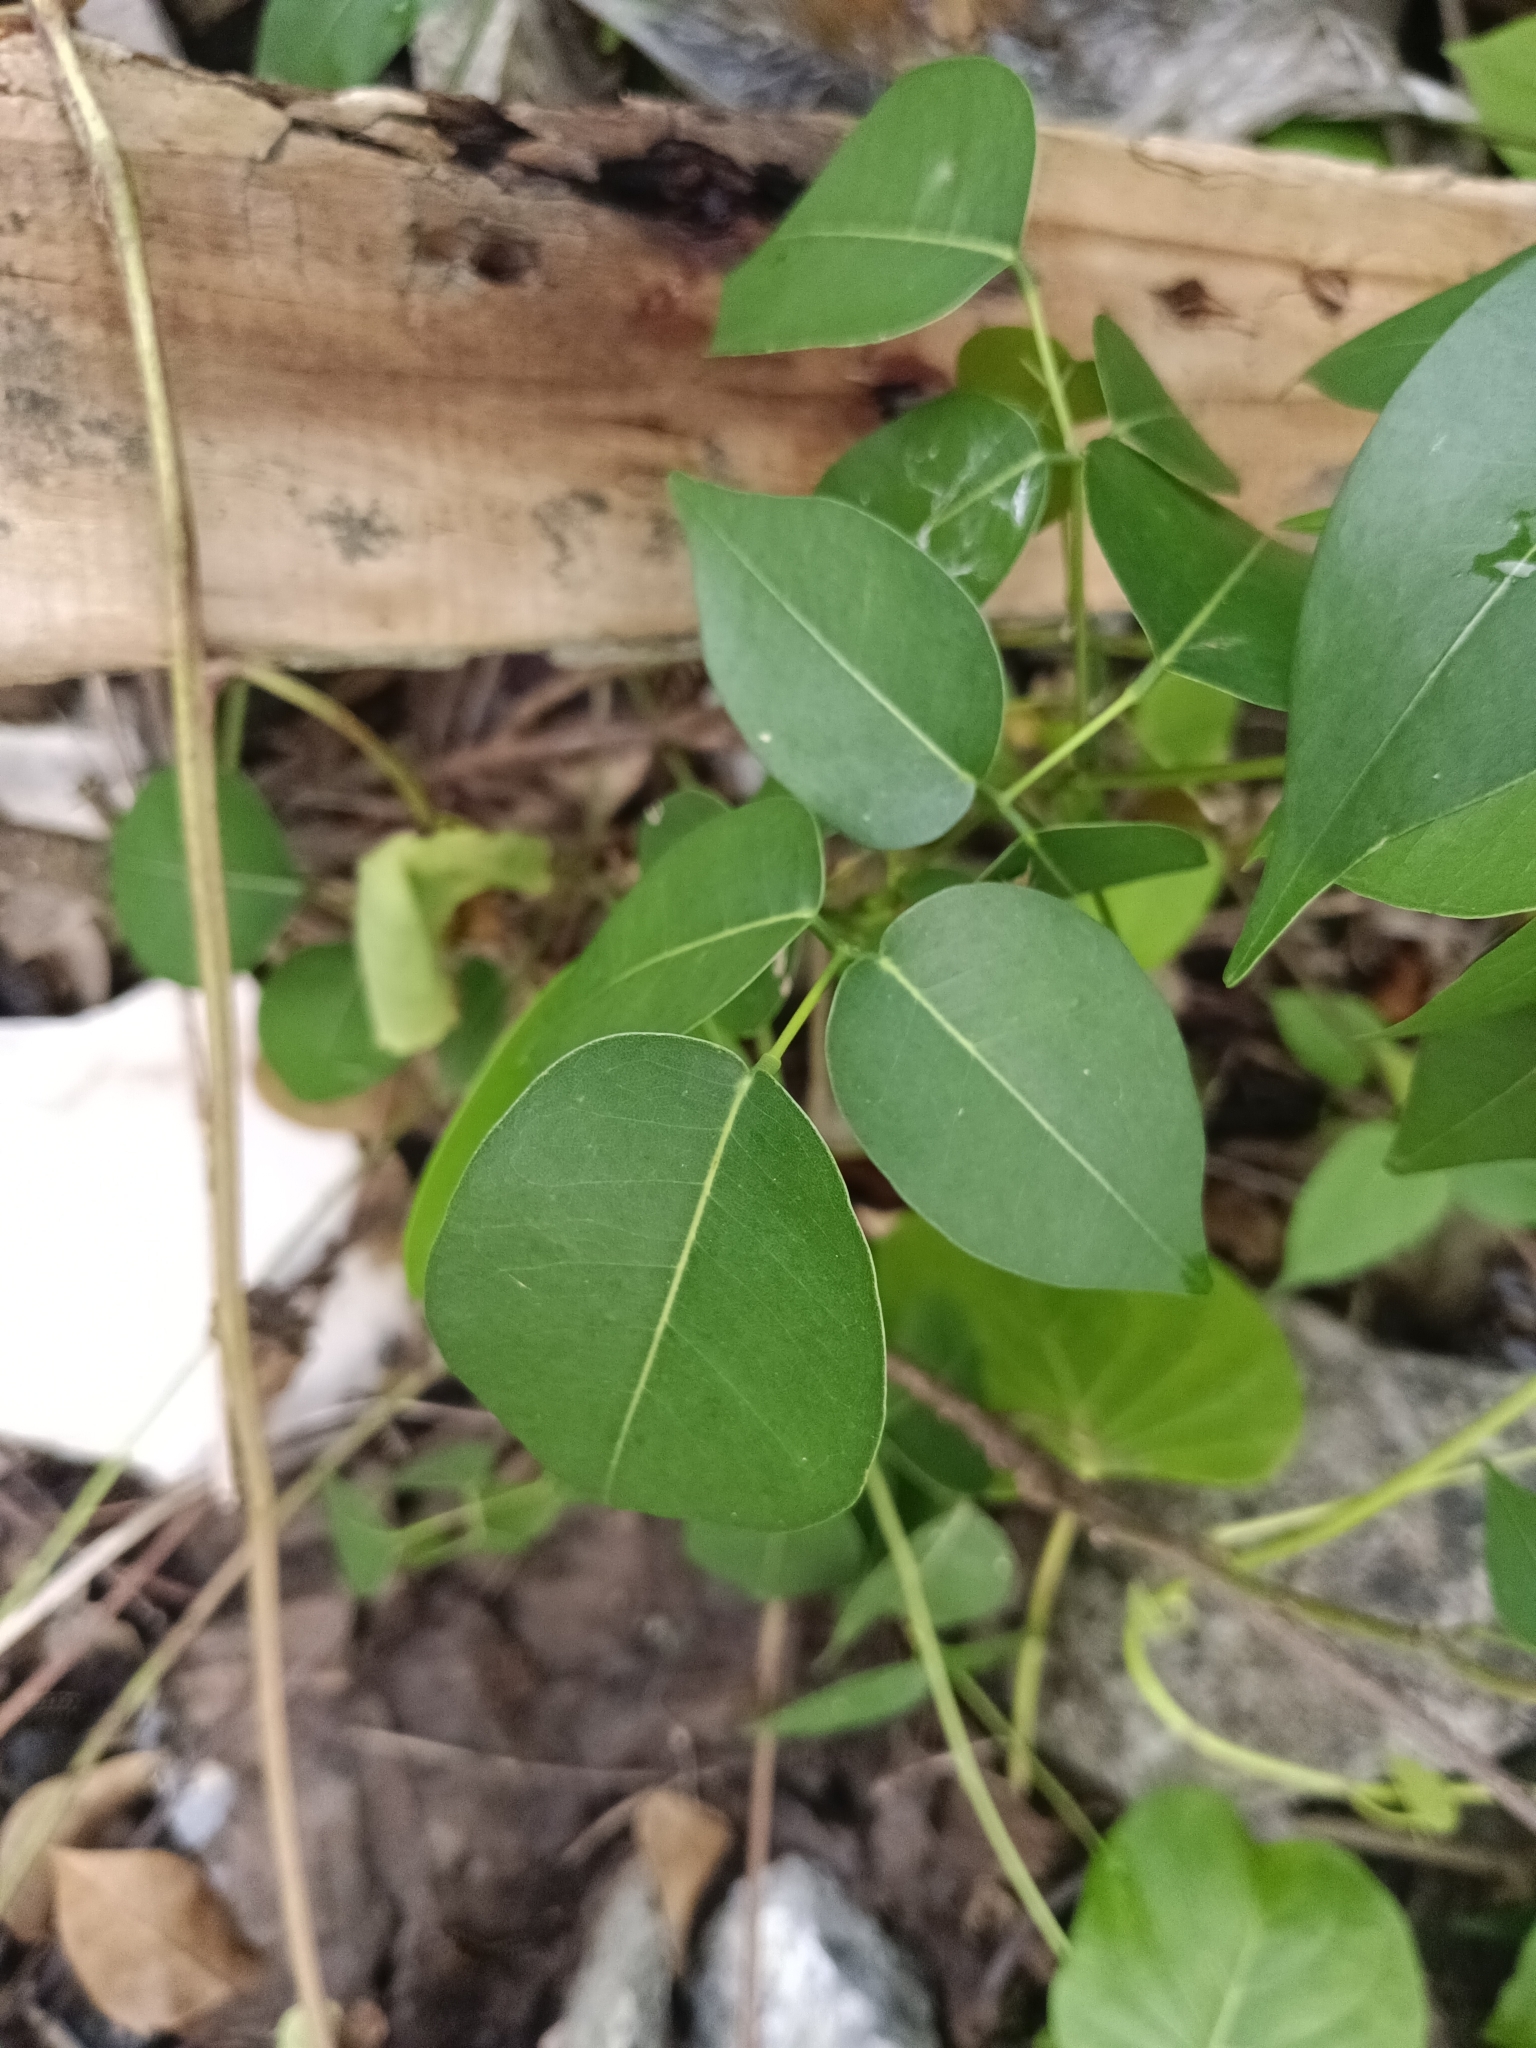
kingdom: Plantae
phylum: Tracheophyta
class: Magnoliopsida
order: Fabales
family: Fabaceae
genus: Derris
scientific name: Derris trifoliata
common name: Three-leaf derris
